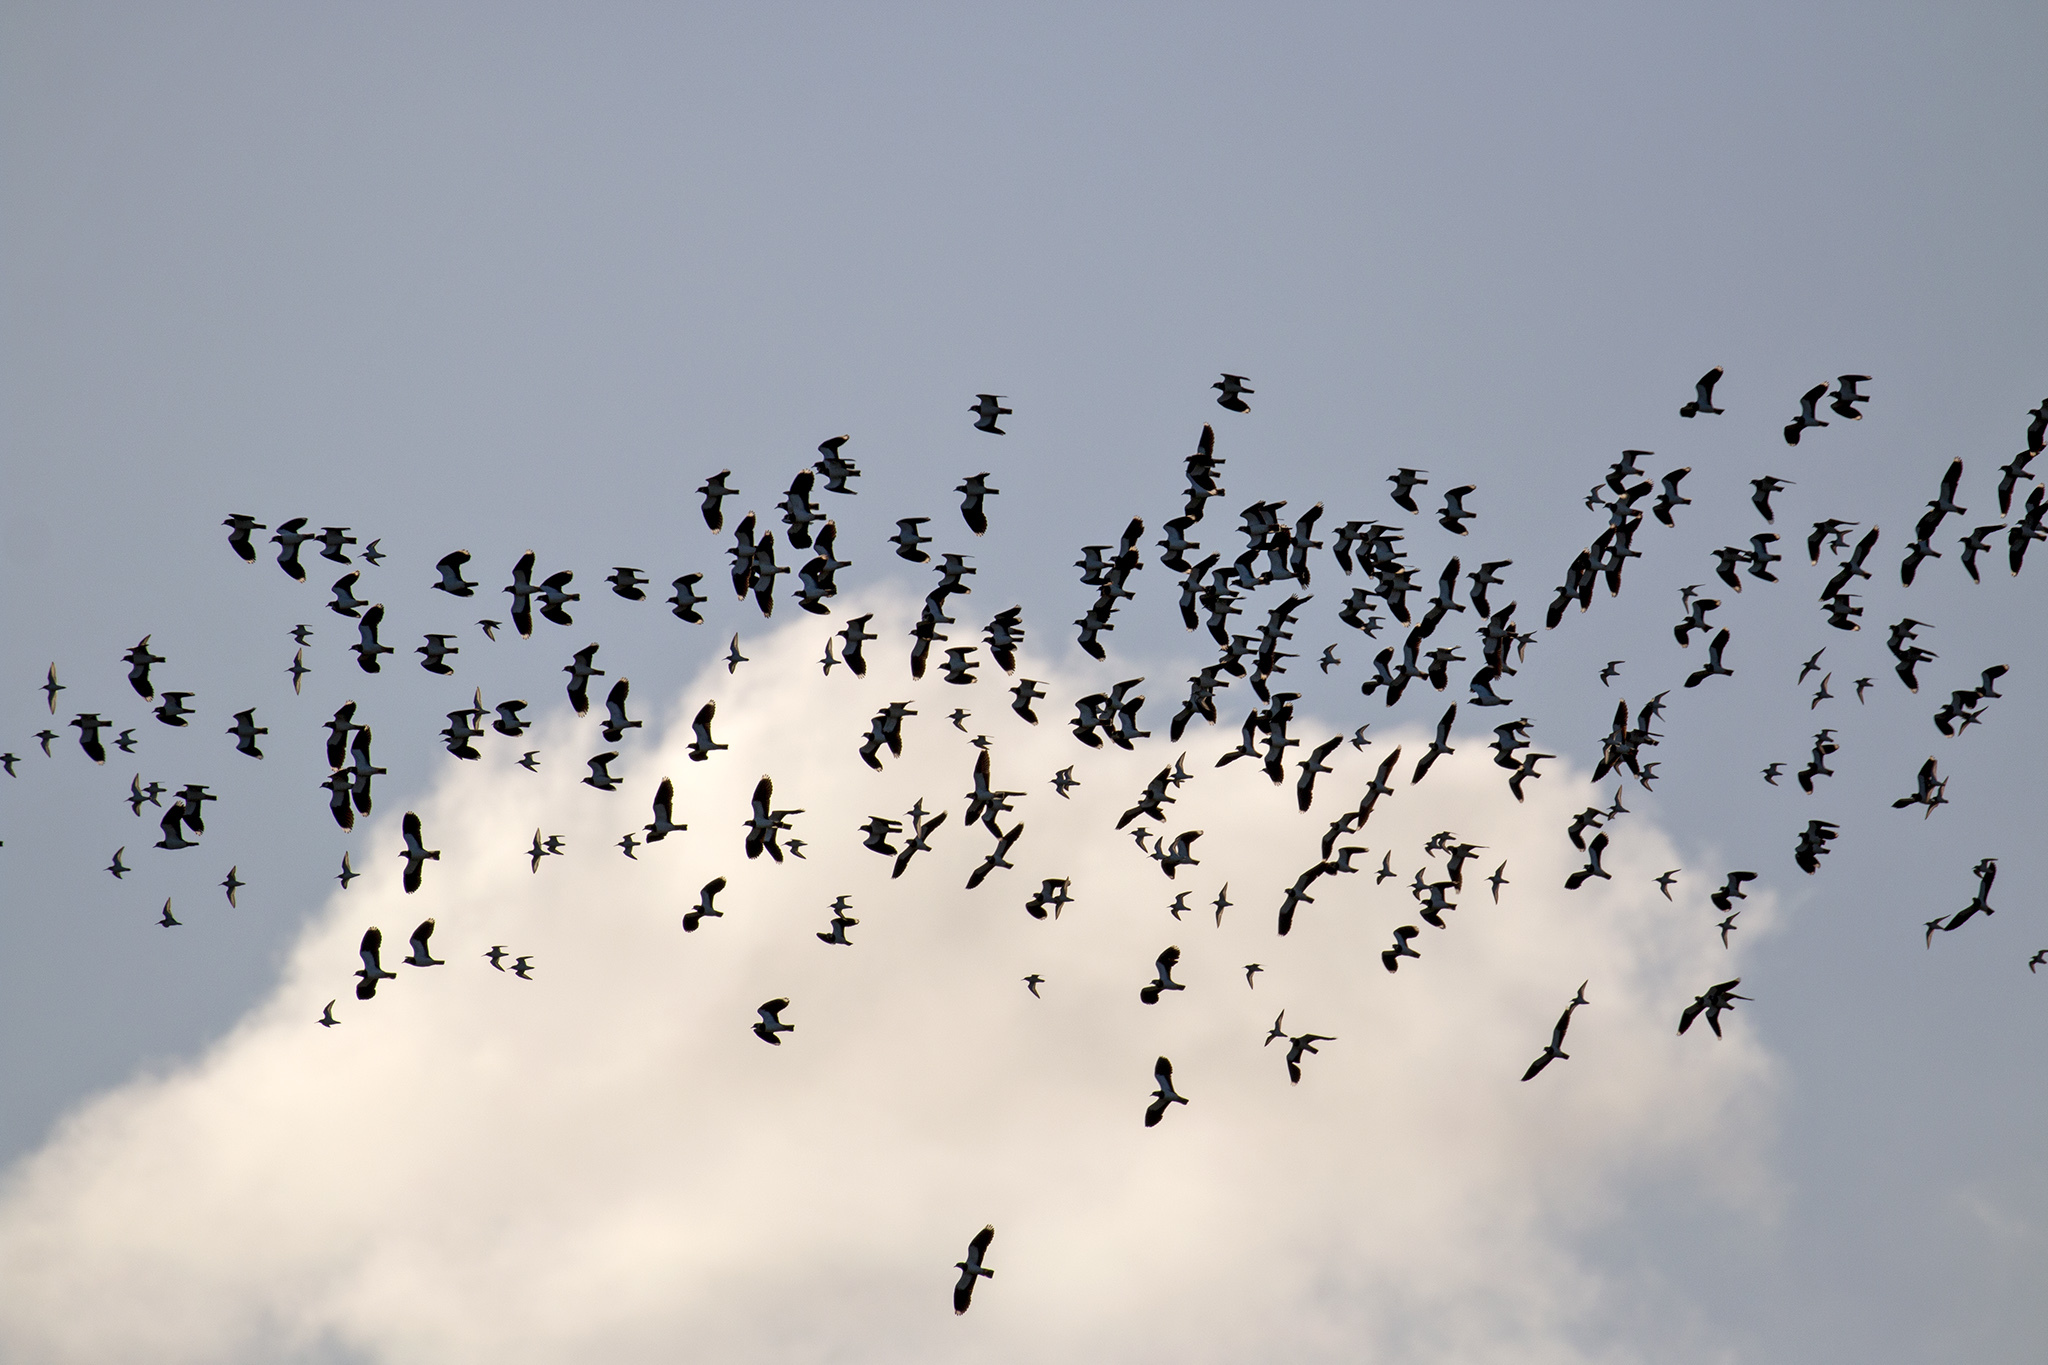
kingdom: Animalia
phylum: Chordata
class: Aves
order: Charadriiformes
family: Charadriidae
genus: Vanellus
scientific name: Vanellus vanellus
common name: Northern lapwing
